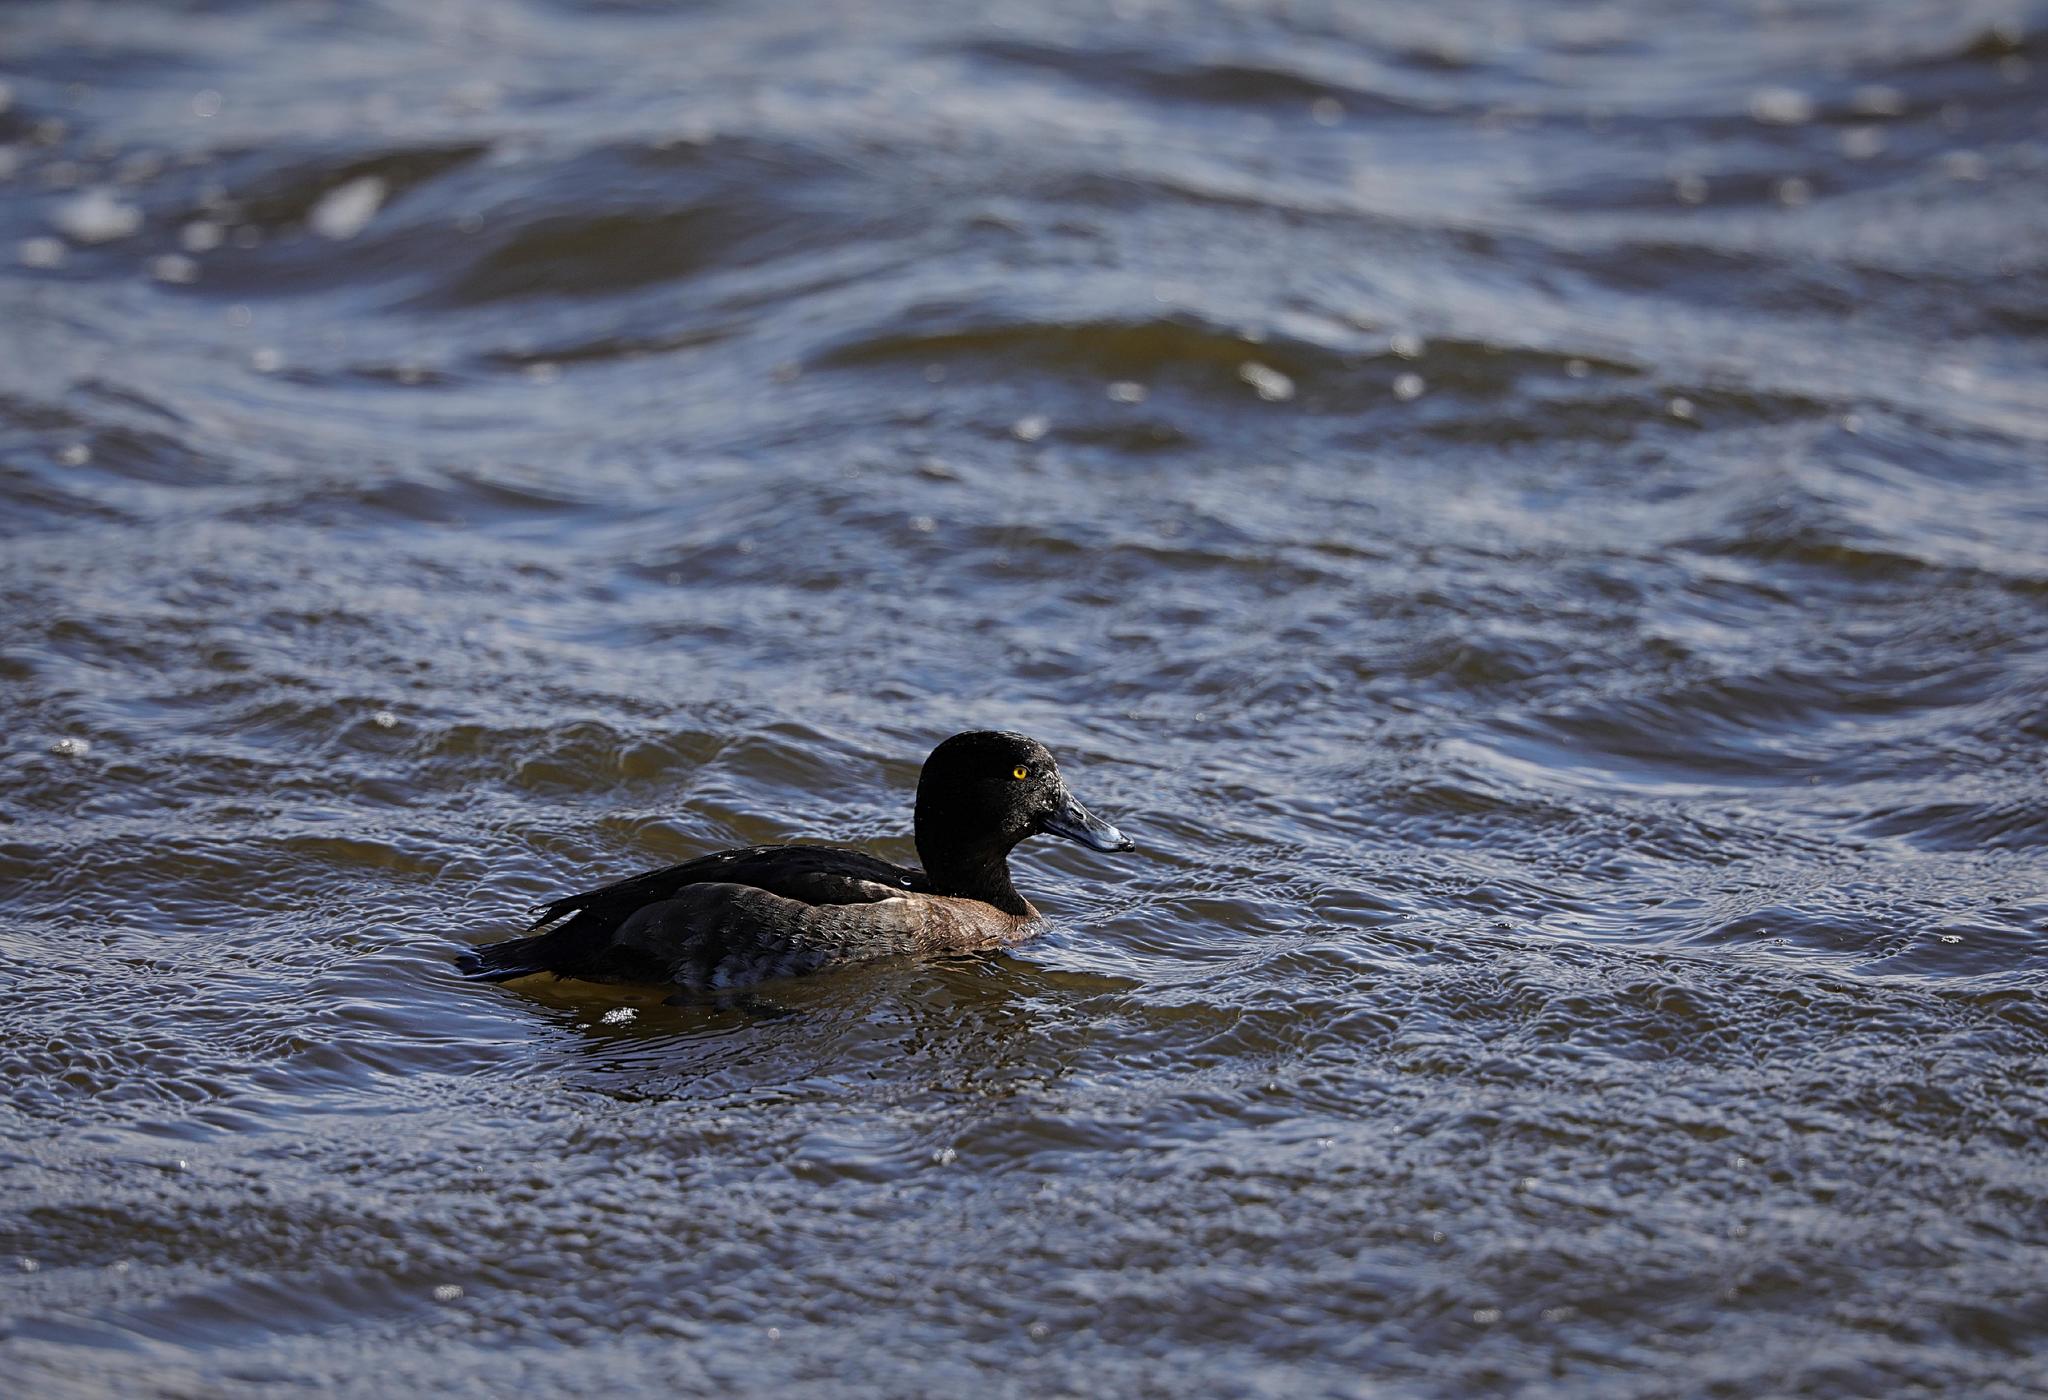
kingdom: Animalia
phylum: Chordata
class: Aves
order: Anseriformes
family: Anatidae
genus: Aythya
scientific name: Aythya fuligula
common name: Tufted duck
